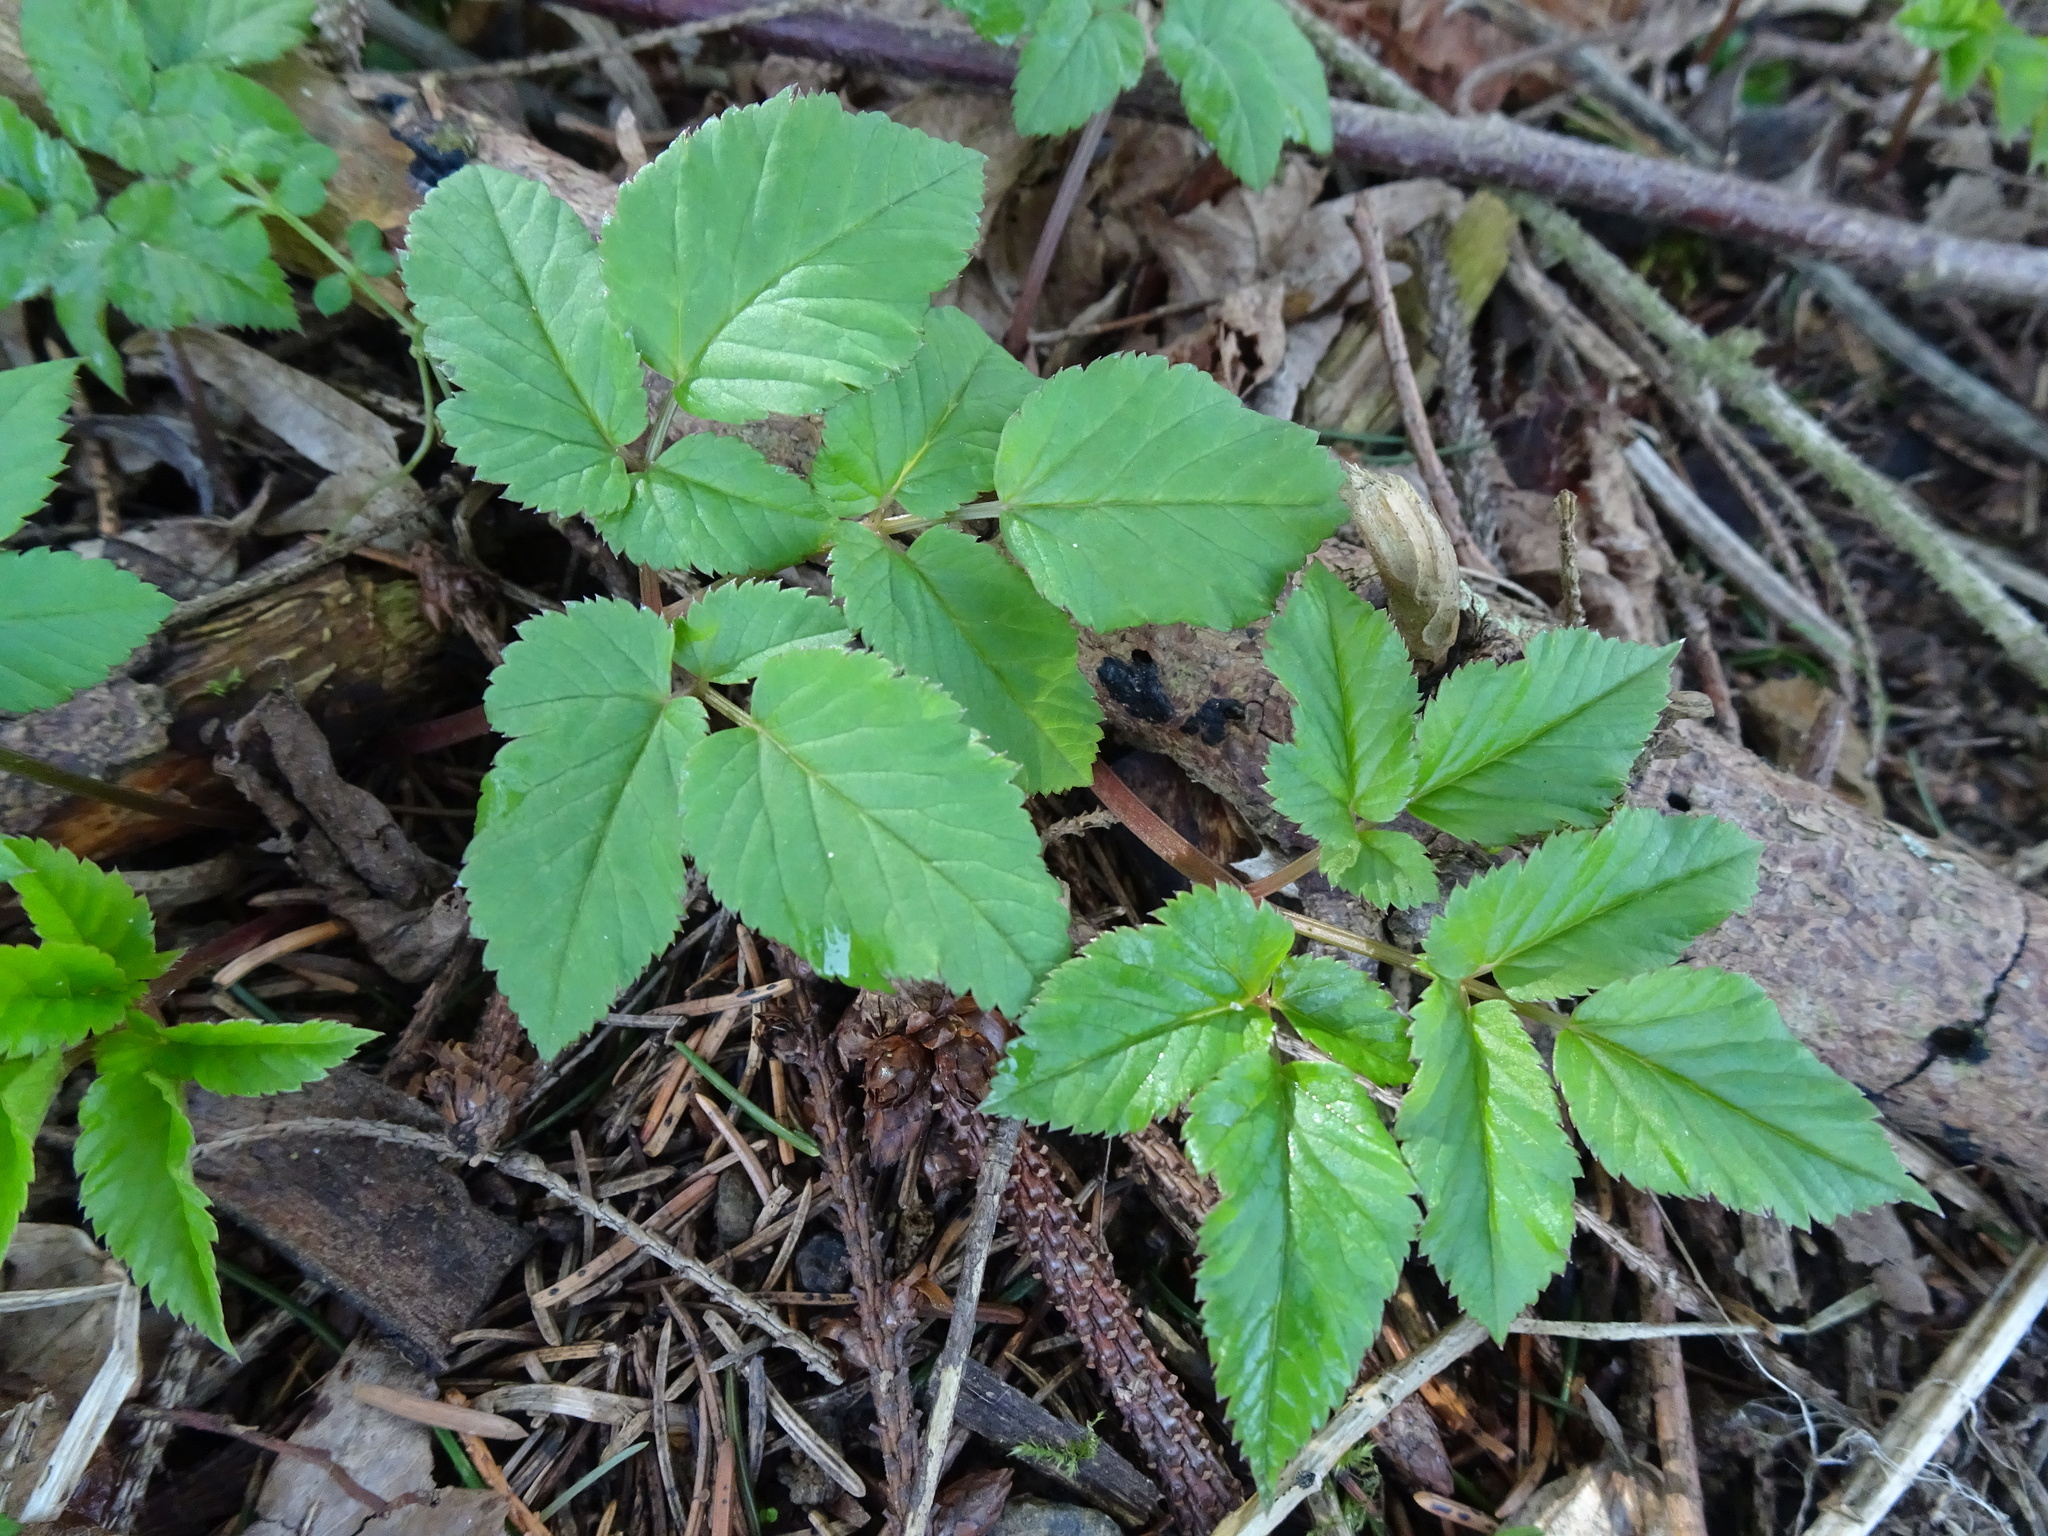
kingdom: Plantae
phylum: Tracheophyta
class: Magnoliopsida
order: Apiales
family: Apiaceae
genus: Aegopodium
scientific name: Aegopodium podagraria
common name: Ground-elder
